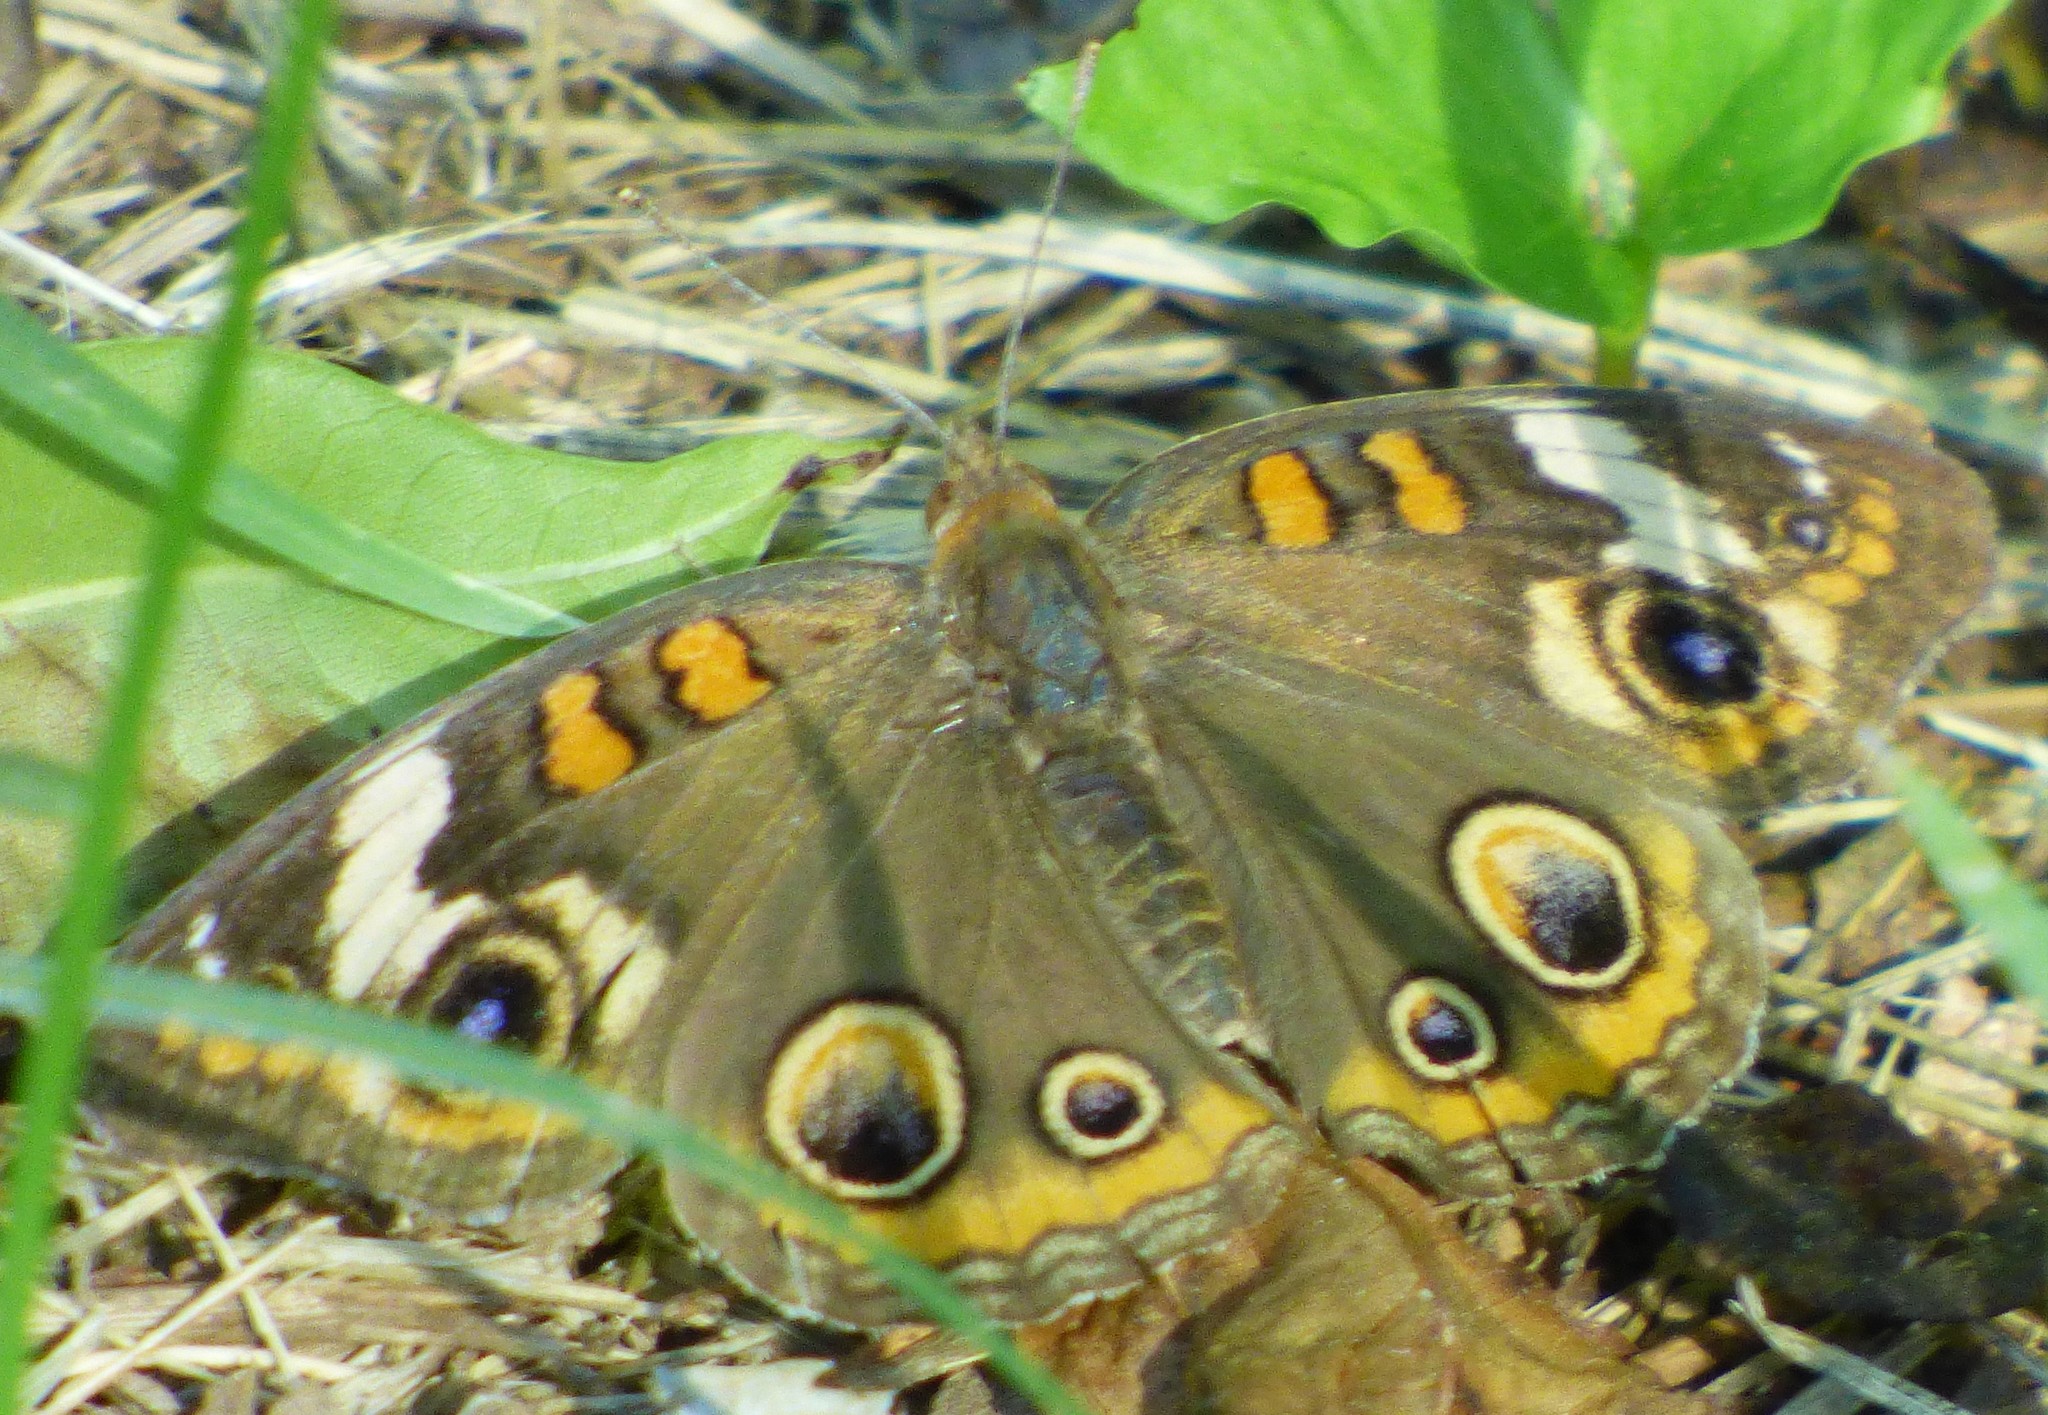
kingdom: Animalia
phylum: Arthropoda
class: Insecta
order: Lepidoptera
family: Nymphalidae
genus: Junonia
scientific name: Junonia coenia
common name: Common buckeye
